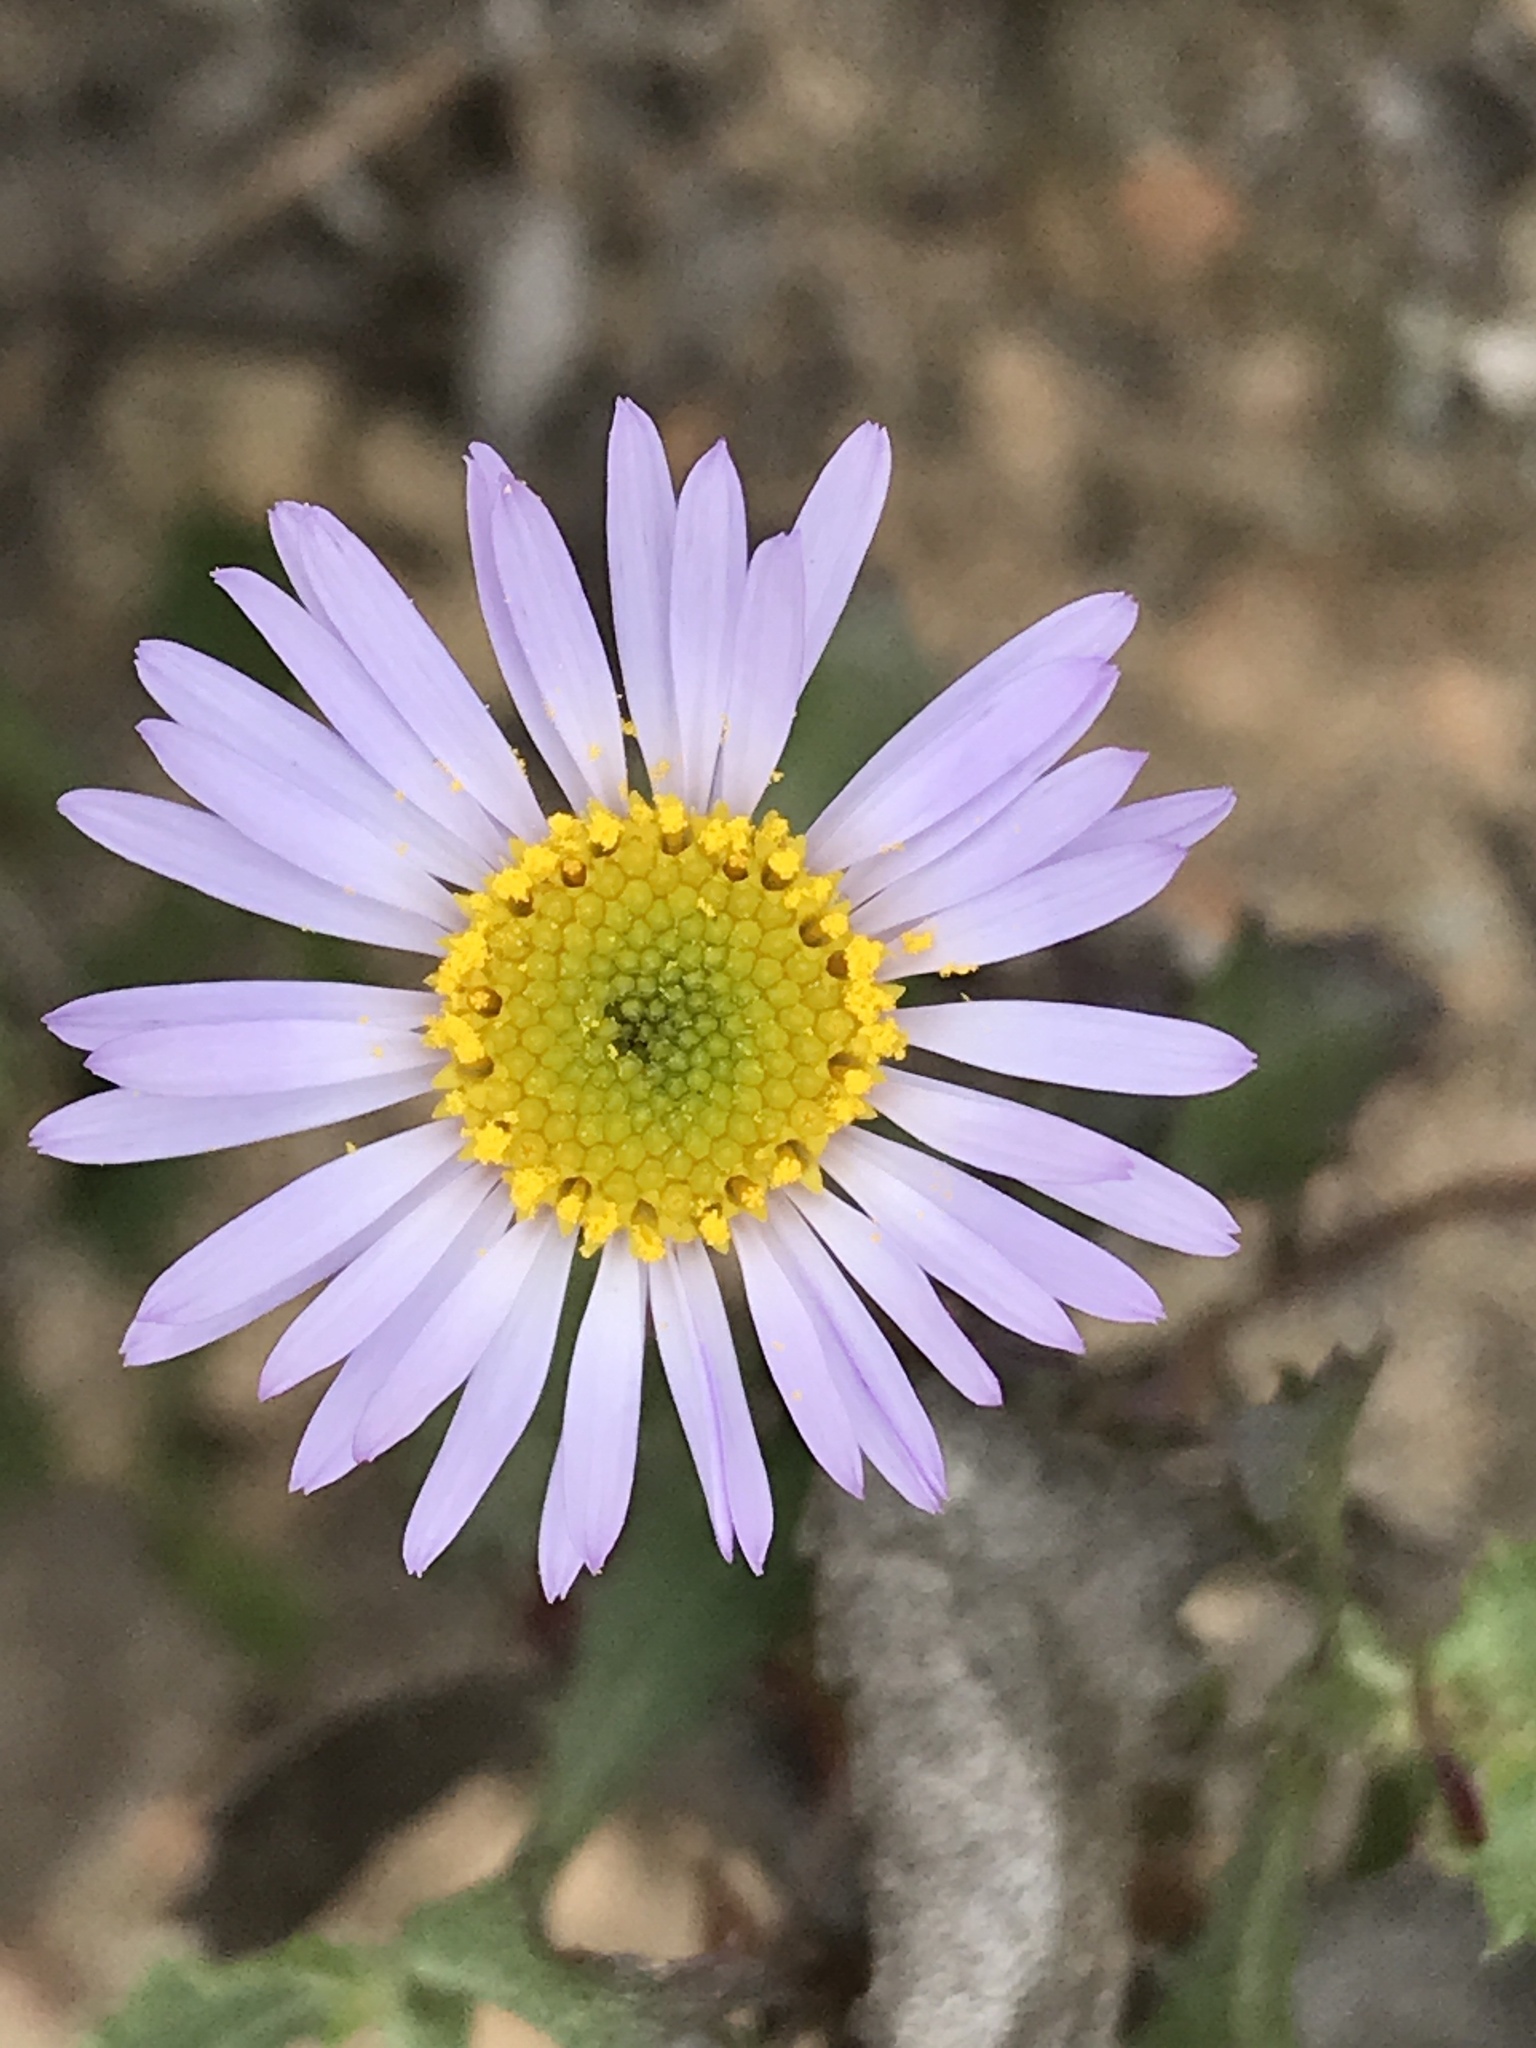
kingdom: Plantae
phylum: Tracheophyta
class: Magnoliopsida
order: Asterales
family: Asteraceae
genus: Erigeron
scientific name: Erigeron foliosus
